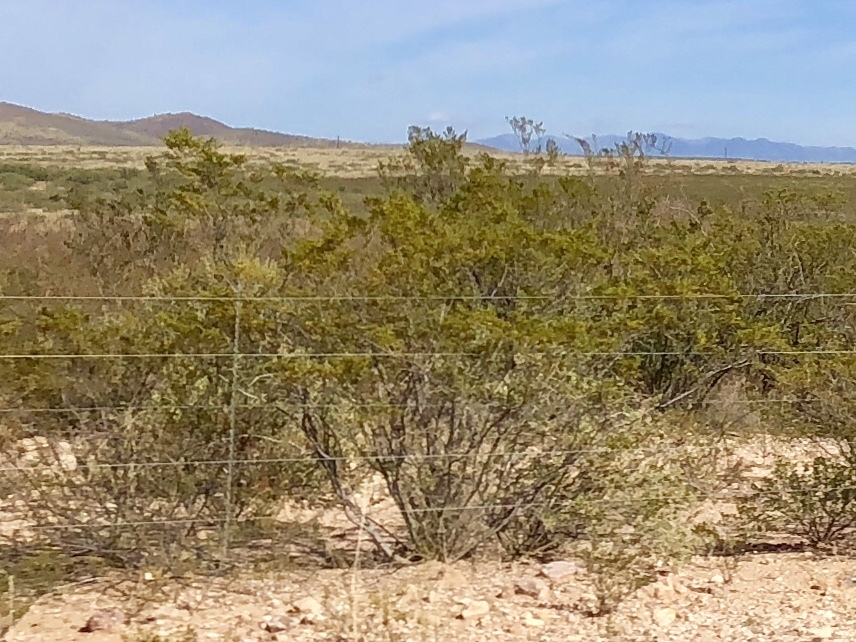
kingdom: Plantae
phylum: Tracheophyta
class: Magnoliopsida
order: Zygophyllales
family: Zygophyllaceae
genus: Larrea
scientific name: Larrea tridentata
